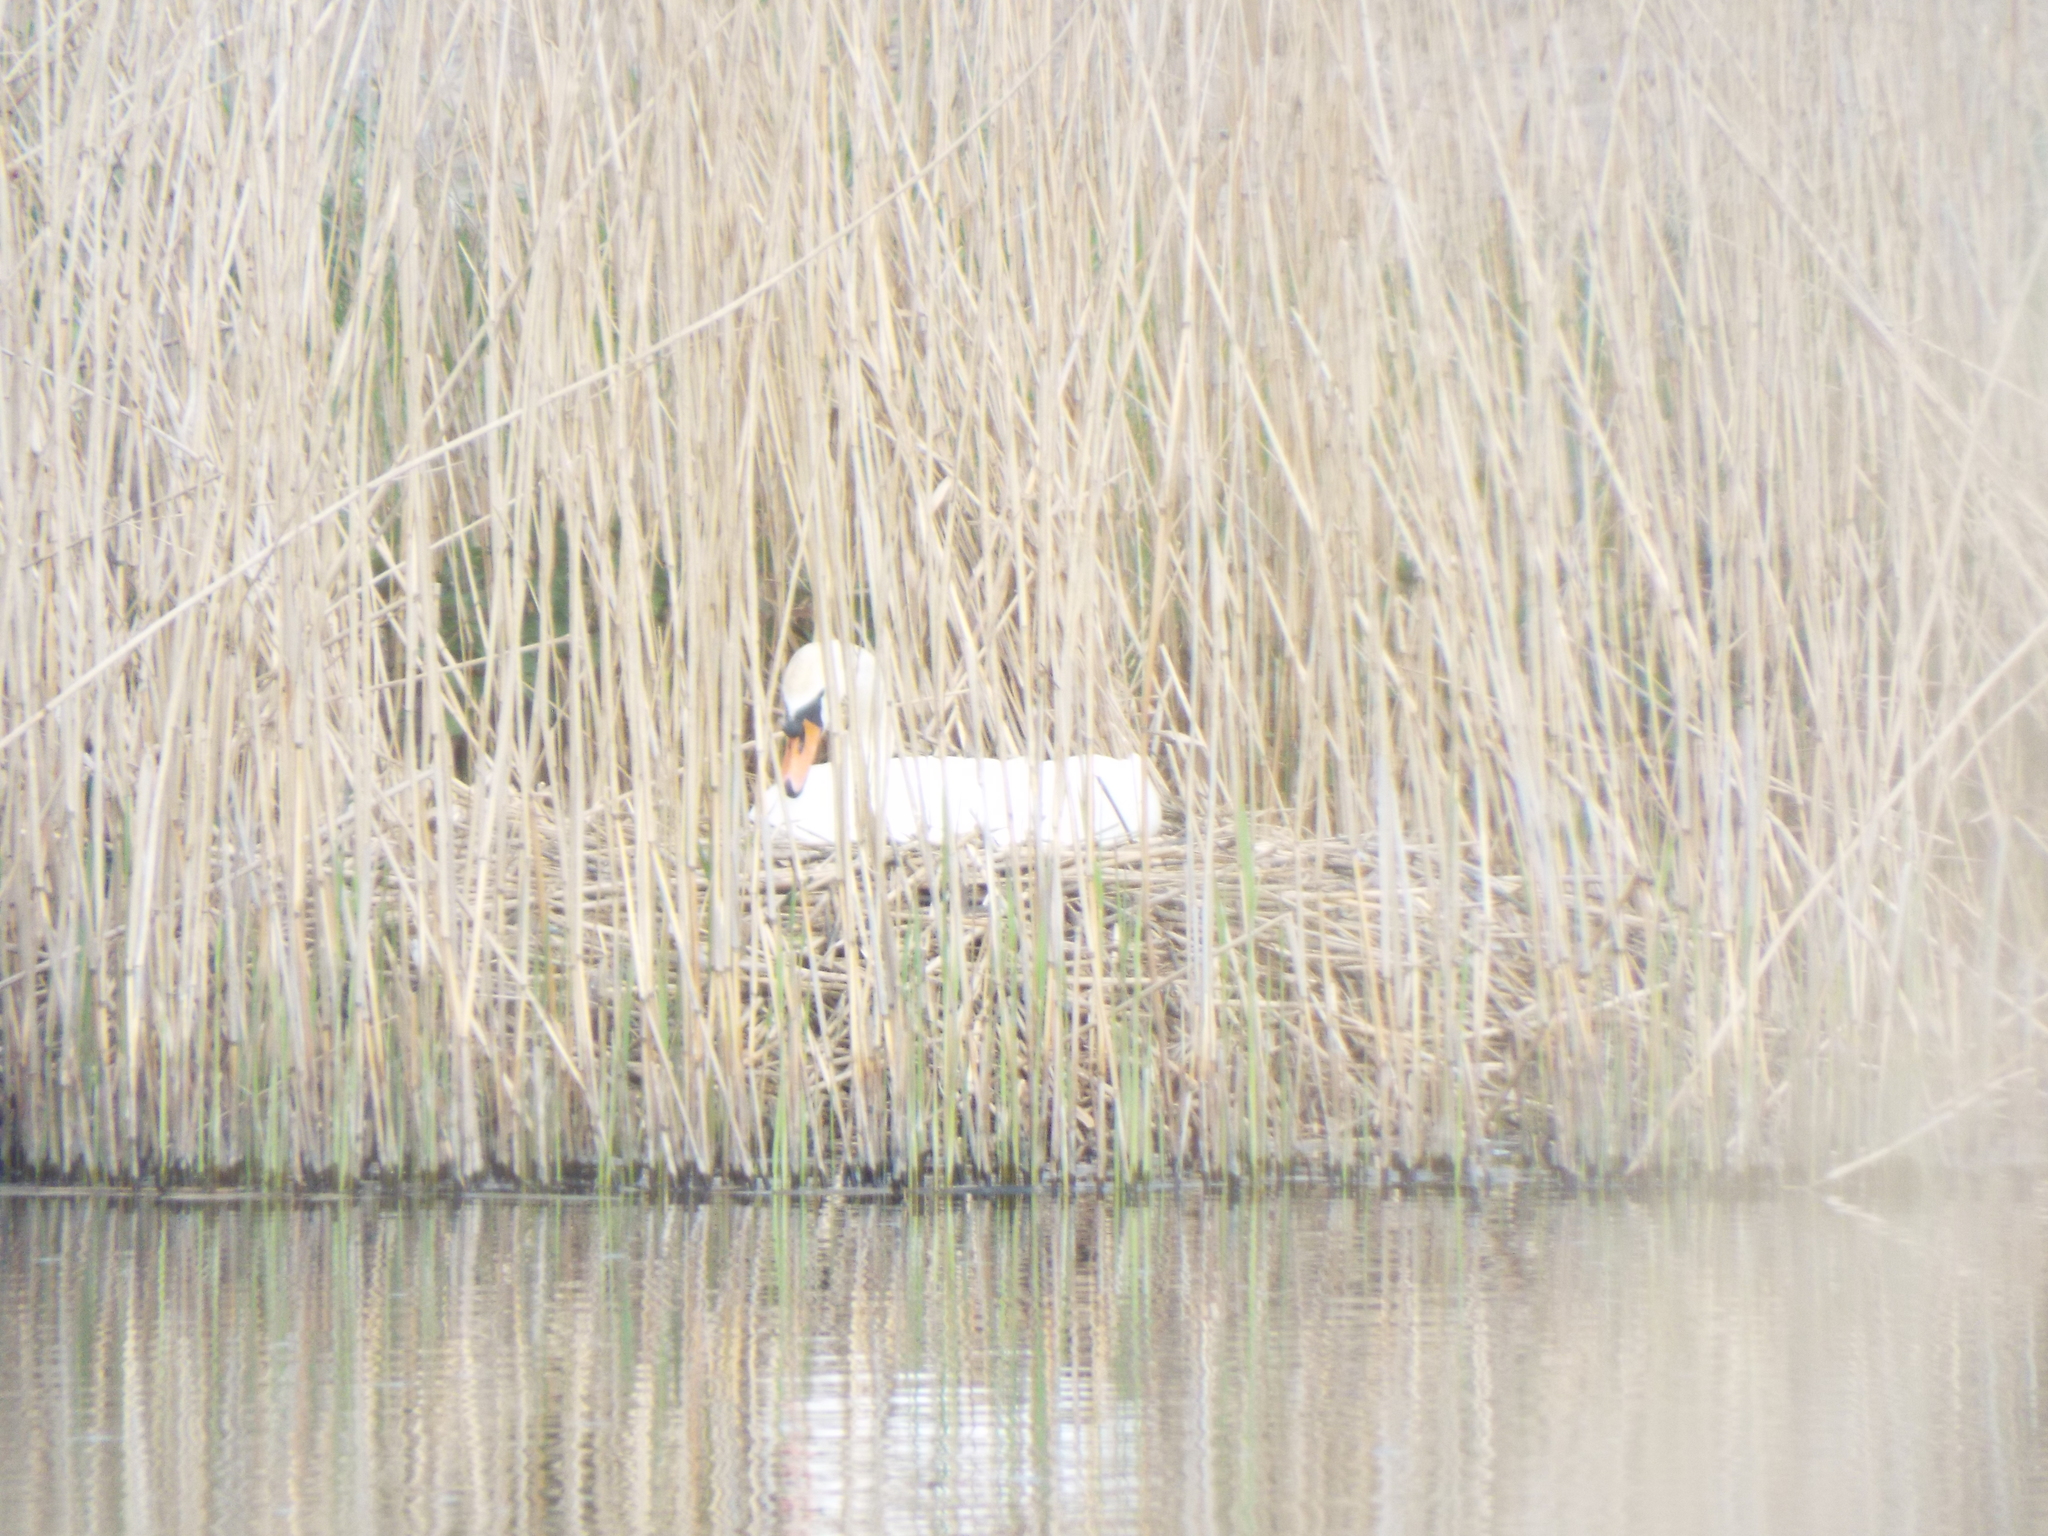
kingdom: Animalia
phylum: Chordata
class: Aves
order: Anseriformes
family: Anatidae
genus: Cygnus
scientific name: Cygnus olor
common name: Mute swan
